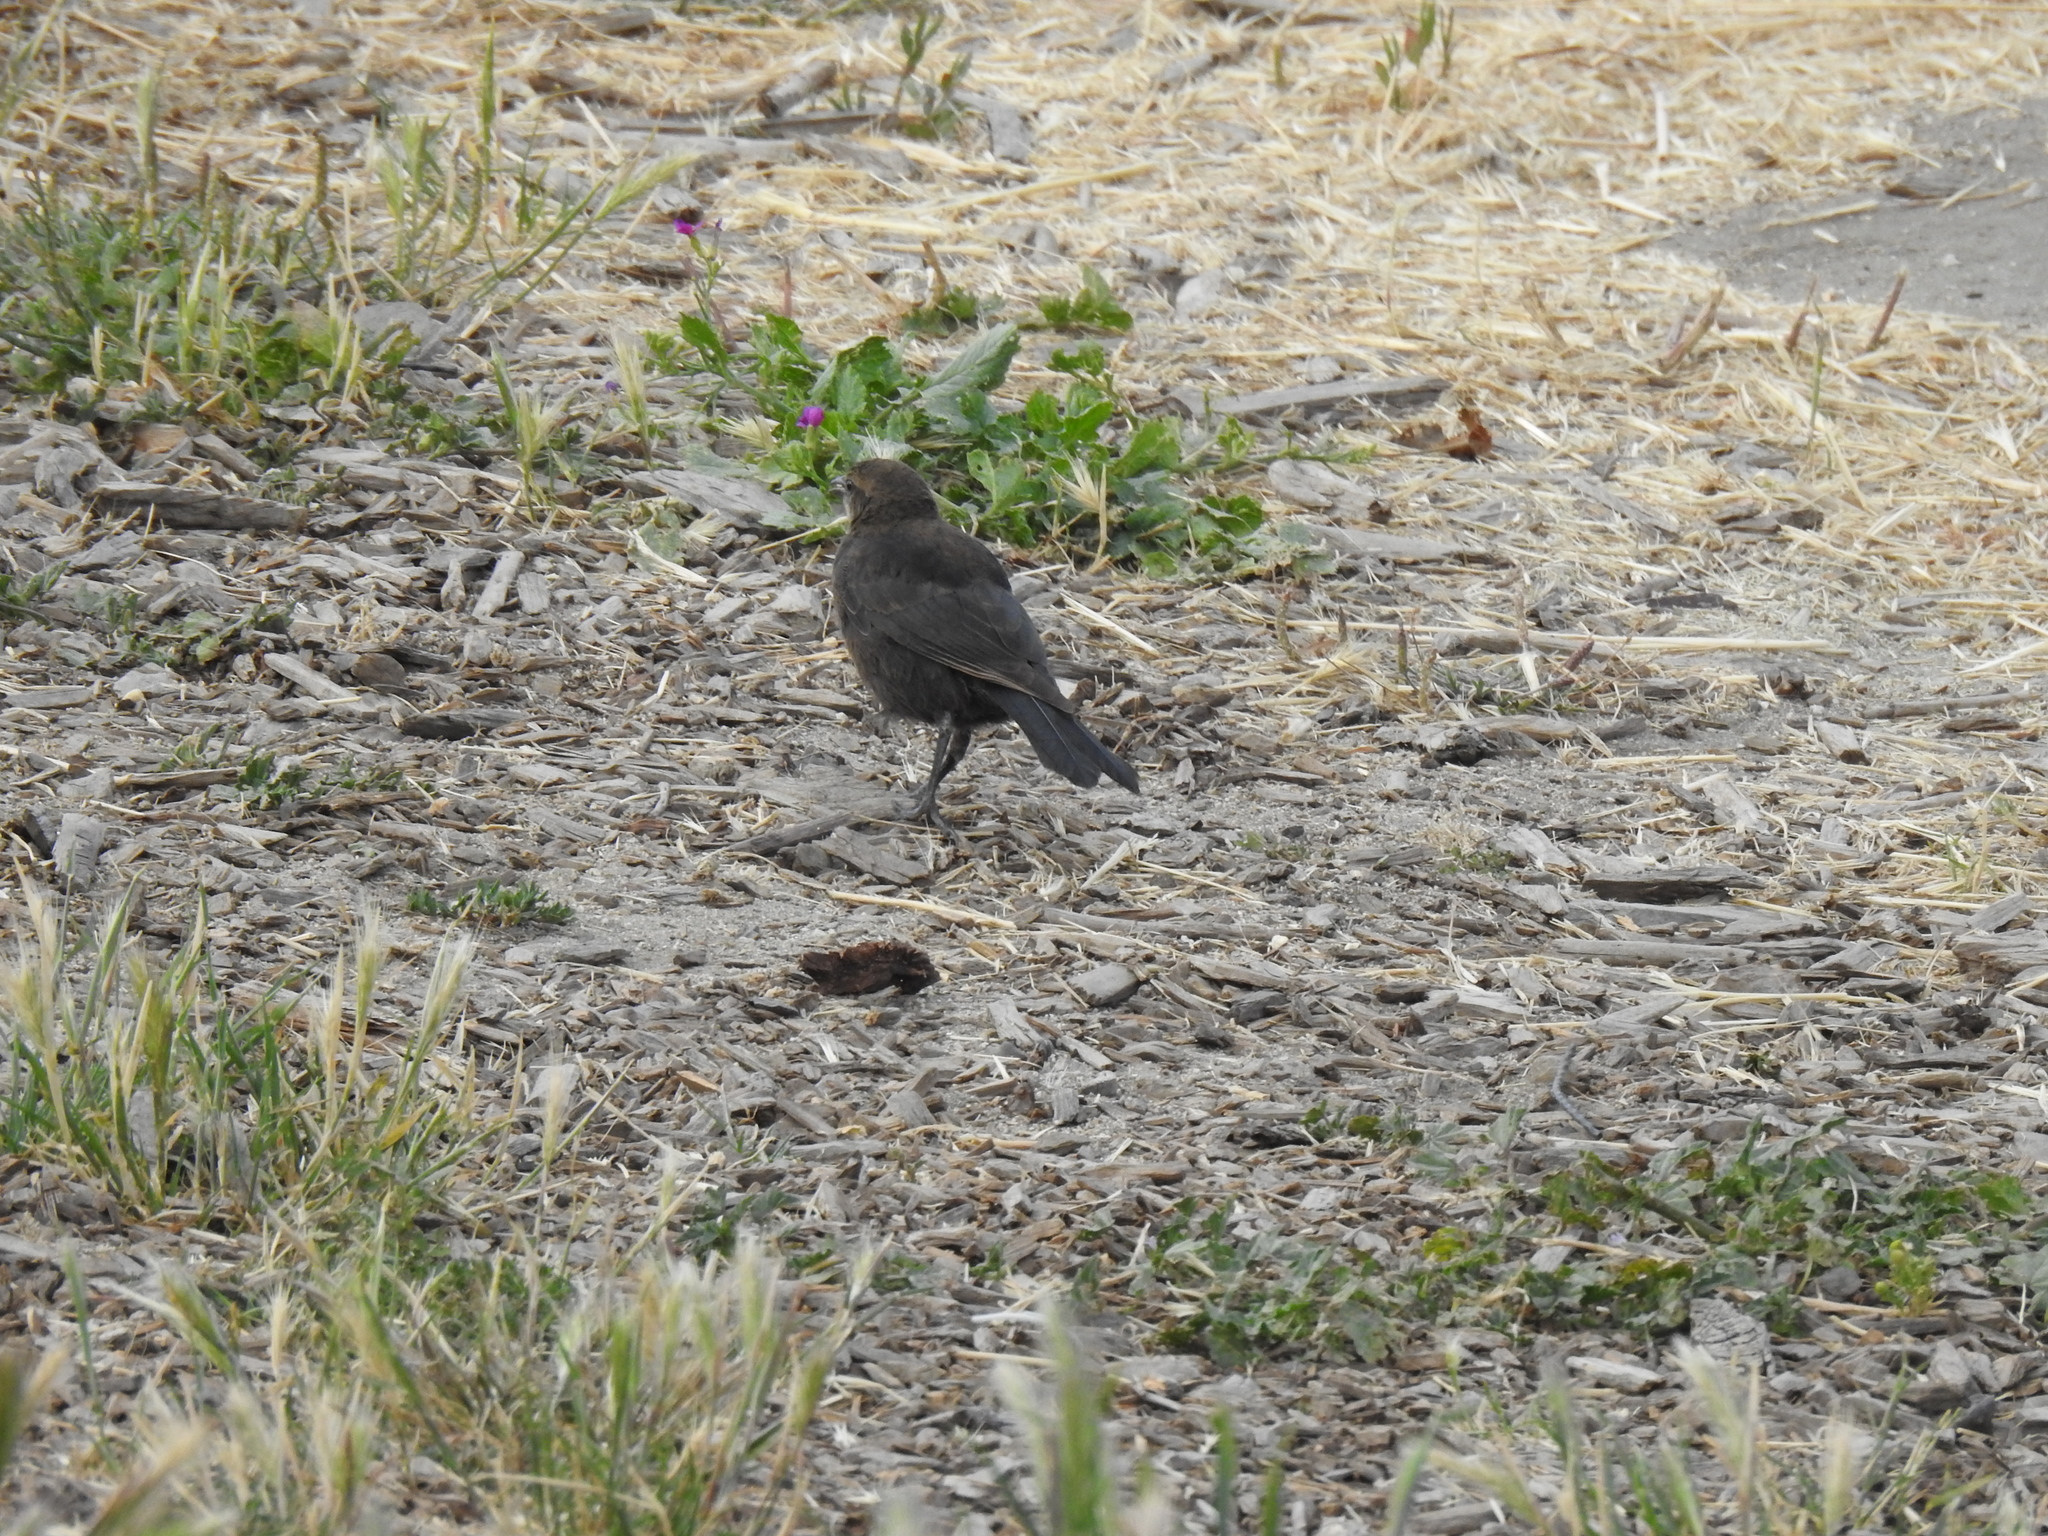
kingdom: Animalia
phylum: Chordata
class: Aves
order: Passeriformes
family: Icteridae
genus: Euphagus
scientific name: Euphagus cyanocephalus
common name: Brewer's blackbird
